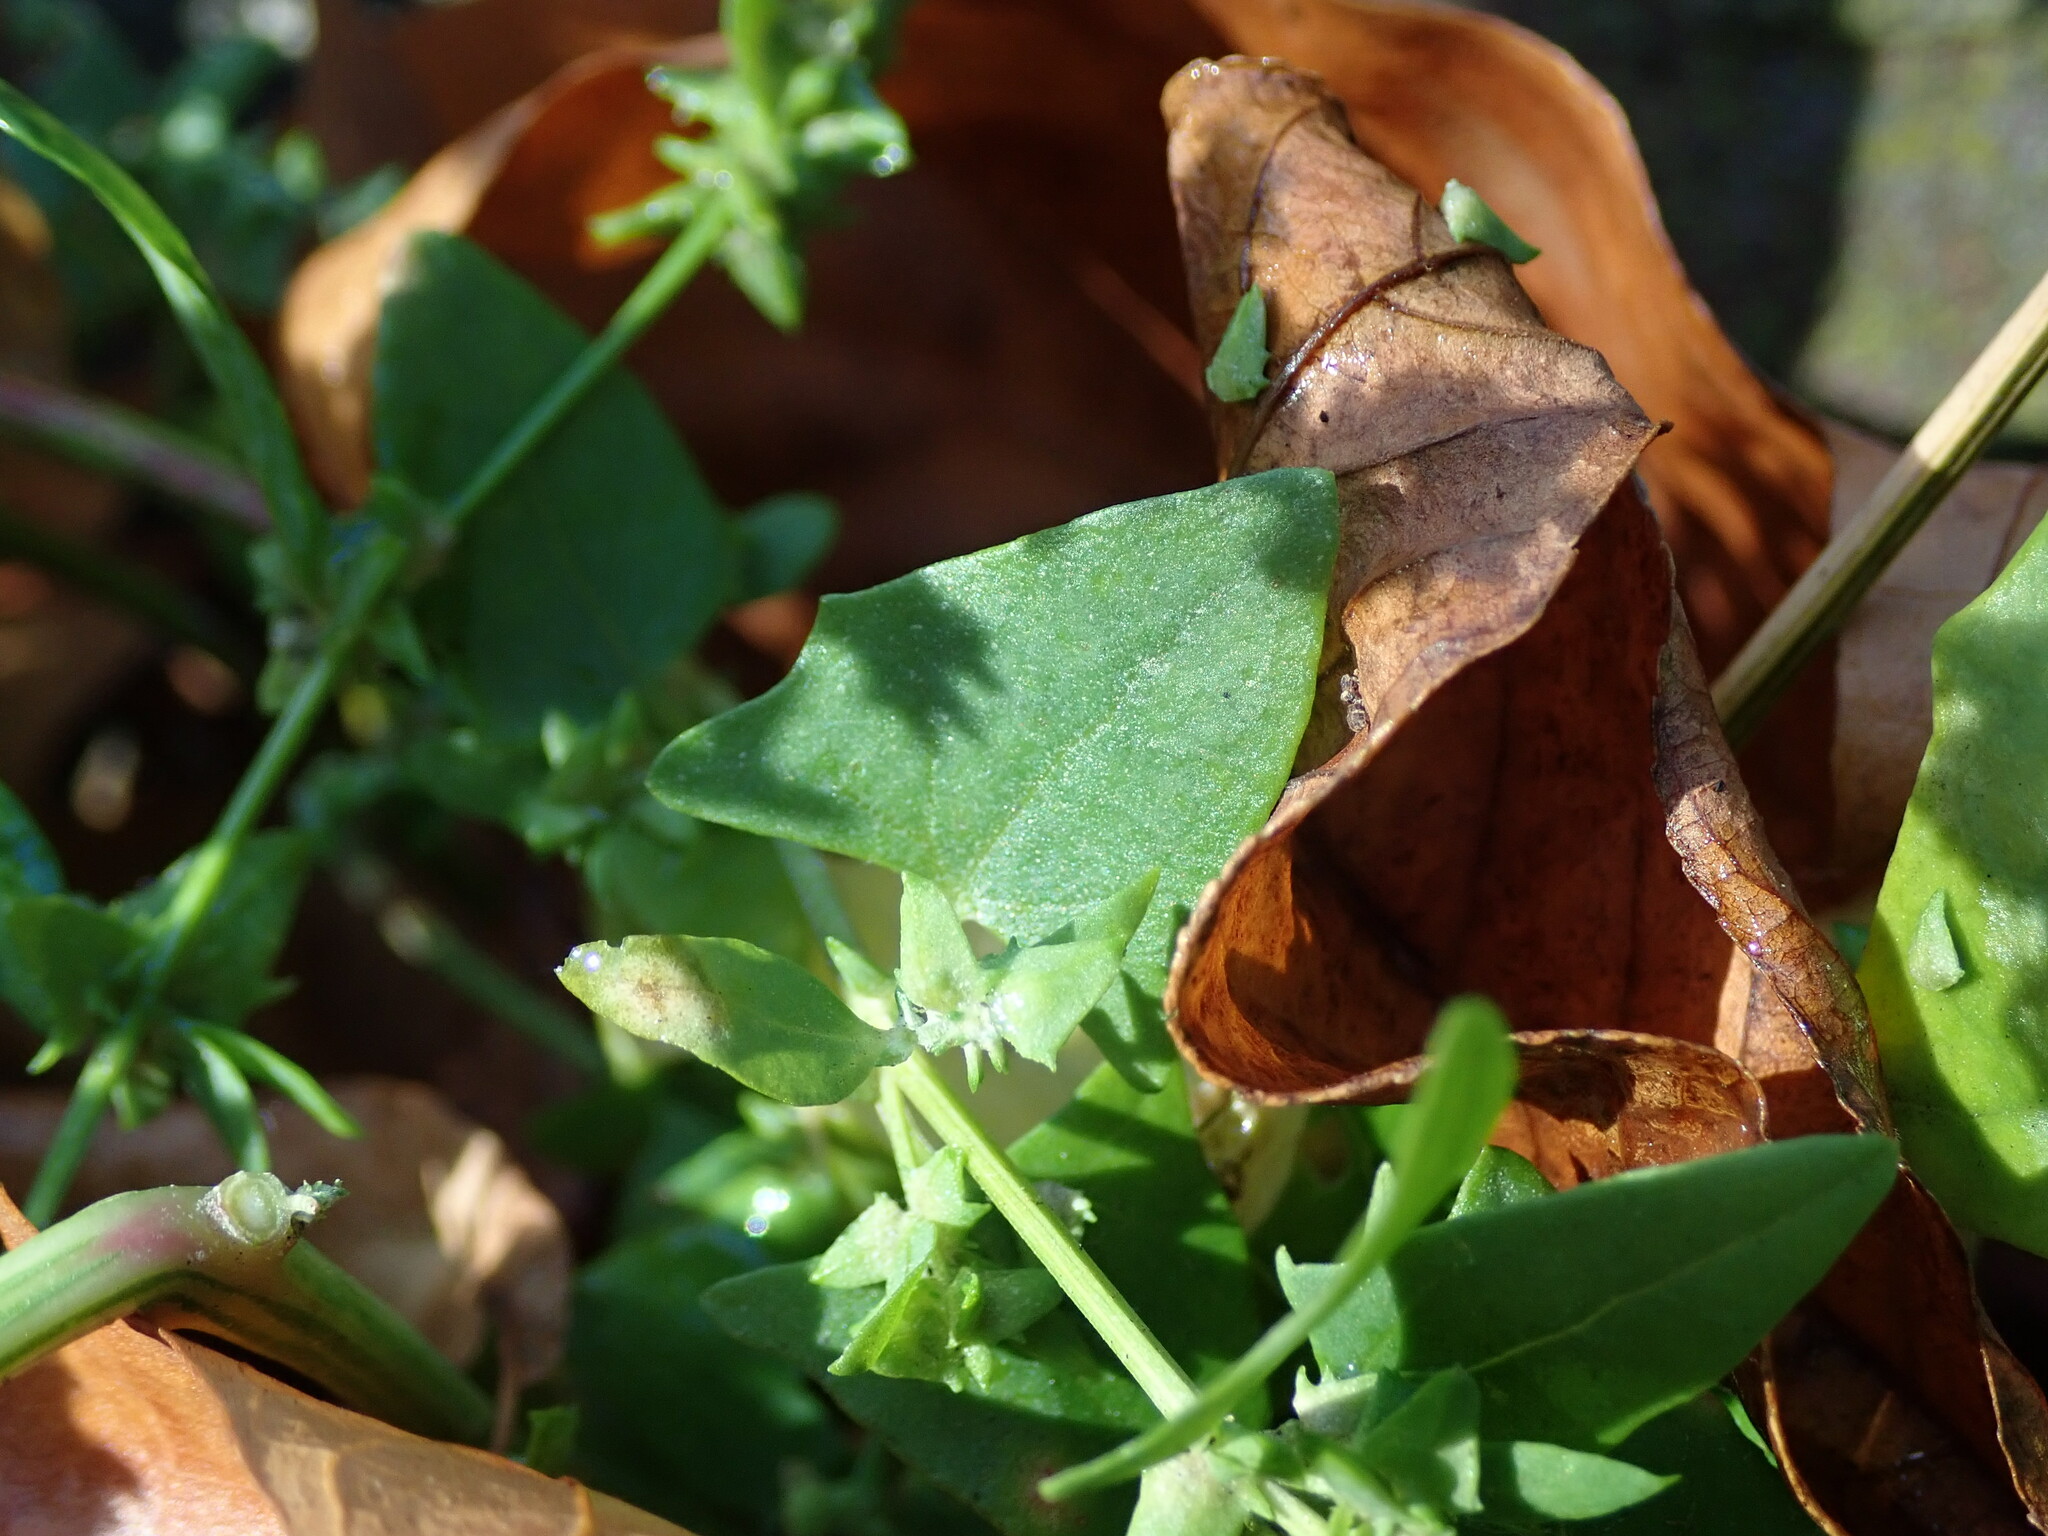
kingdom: Plantae
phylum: Tracheophyta
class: Magnoliopsida
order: Caryophyllales
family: Amaranthaceae
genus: Atriplex
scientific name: Atriplex prostrata
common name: Spear-leaved orache
